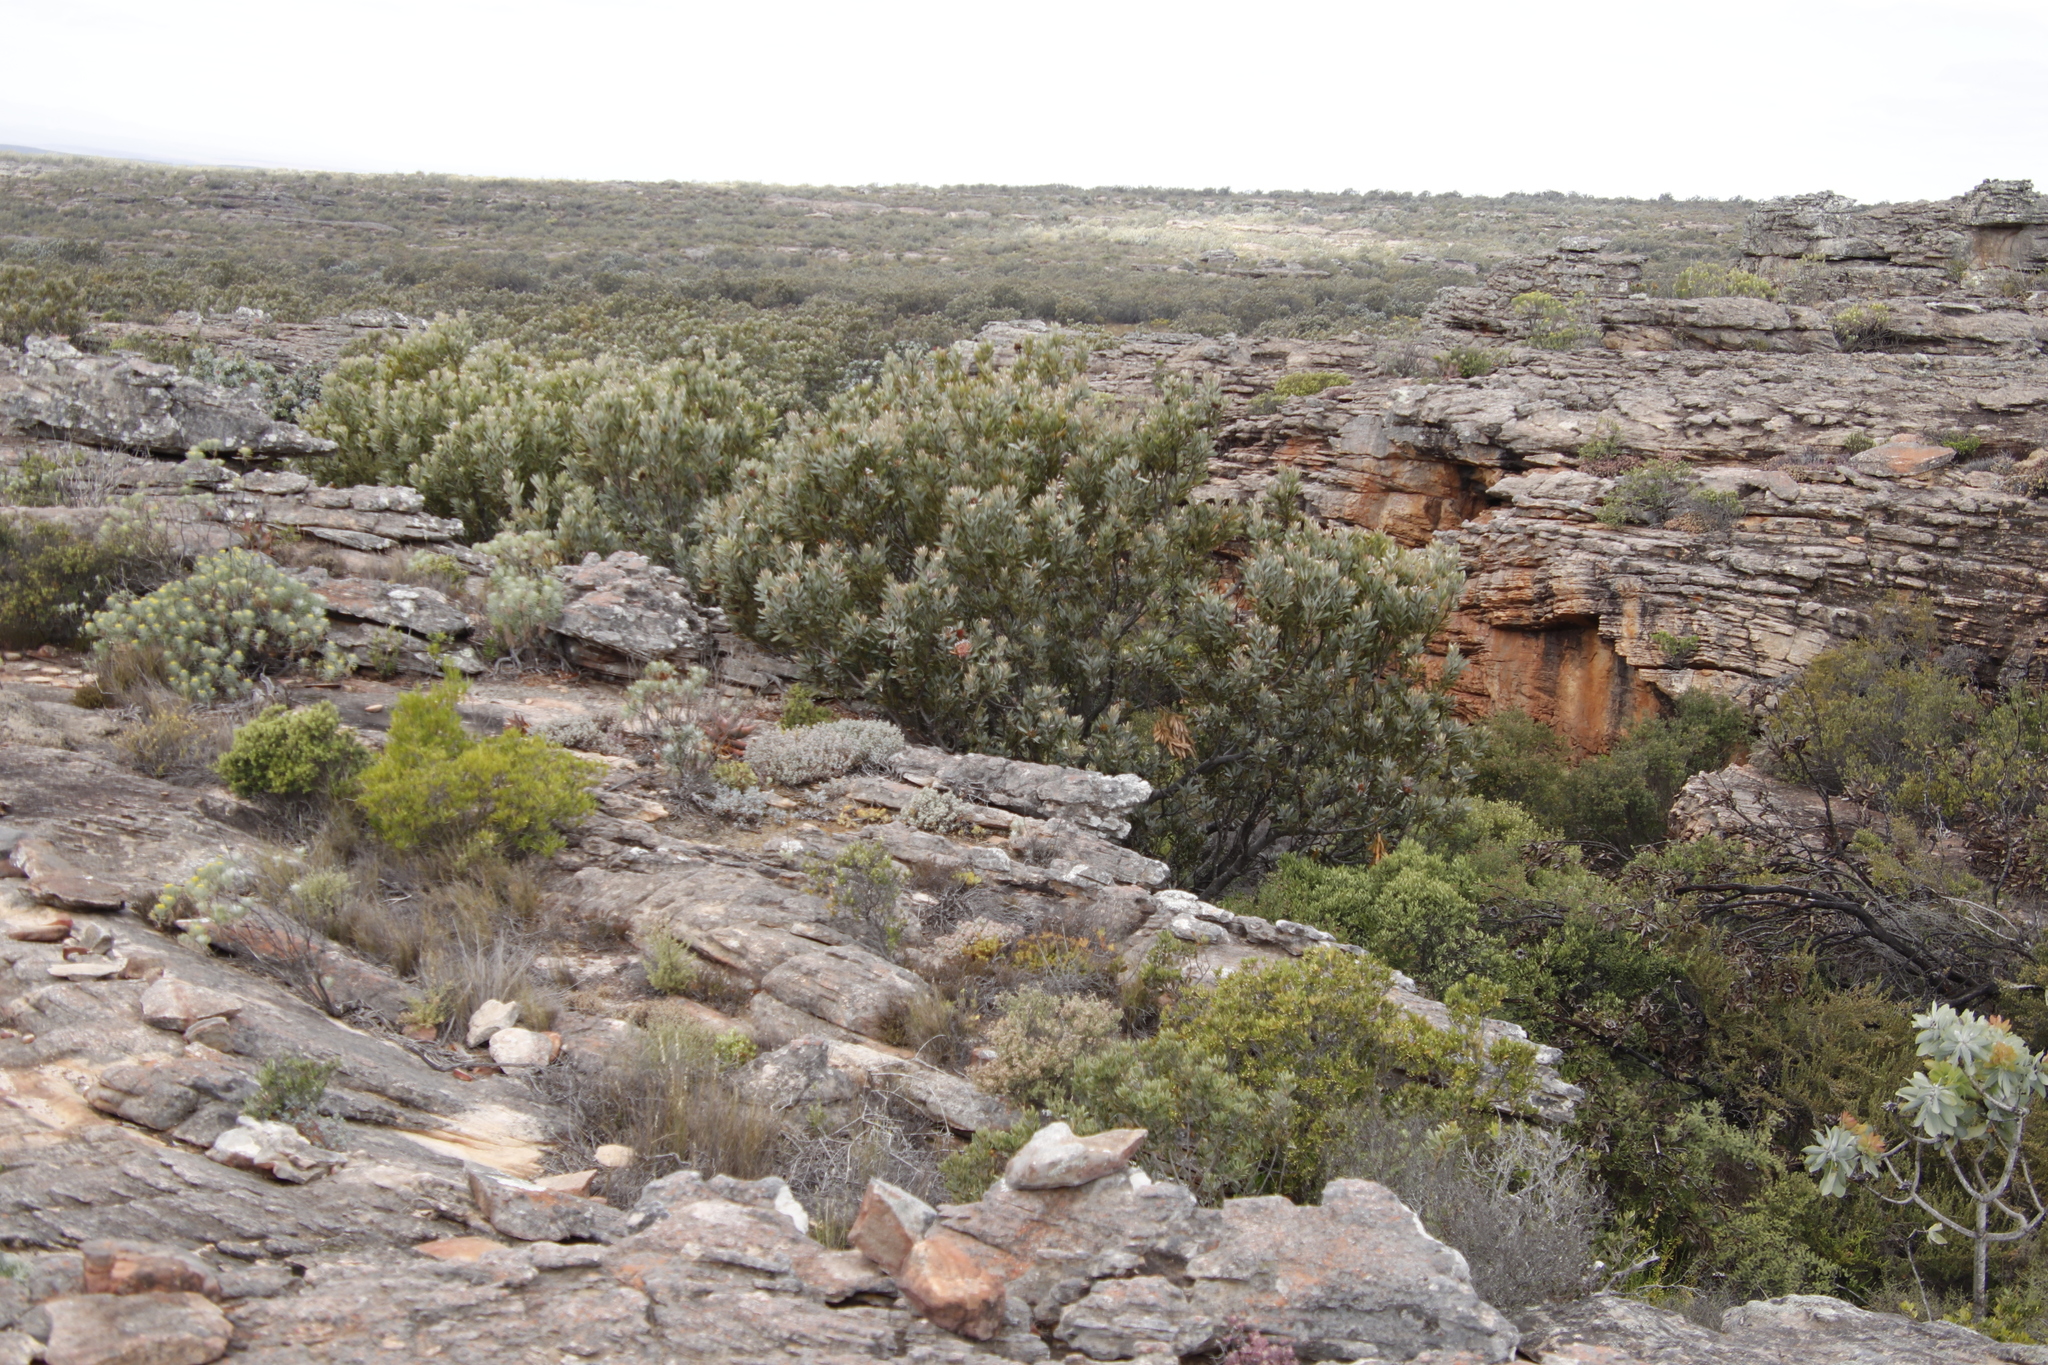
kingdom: Plantae
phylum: Tracheophyta
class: Magnoliopsida
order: Proteales
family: Proteaceae
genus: Protea
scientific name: Protea laurifolia
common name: Grey-leaf sugarbsh
